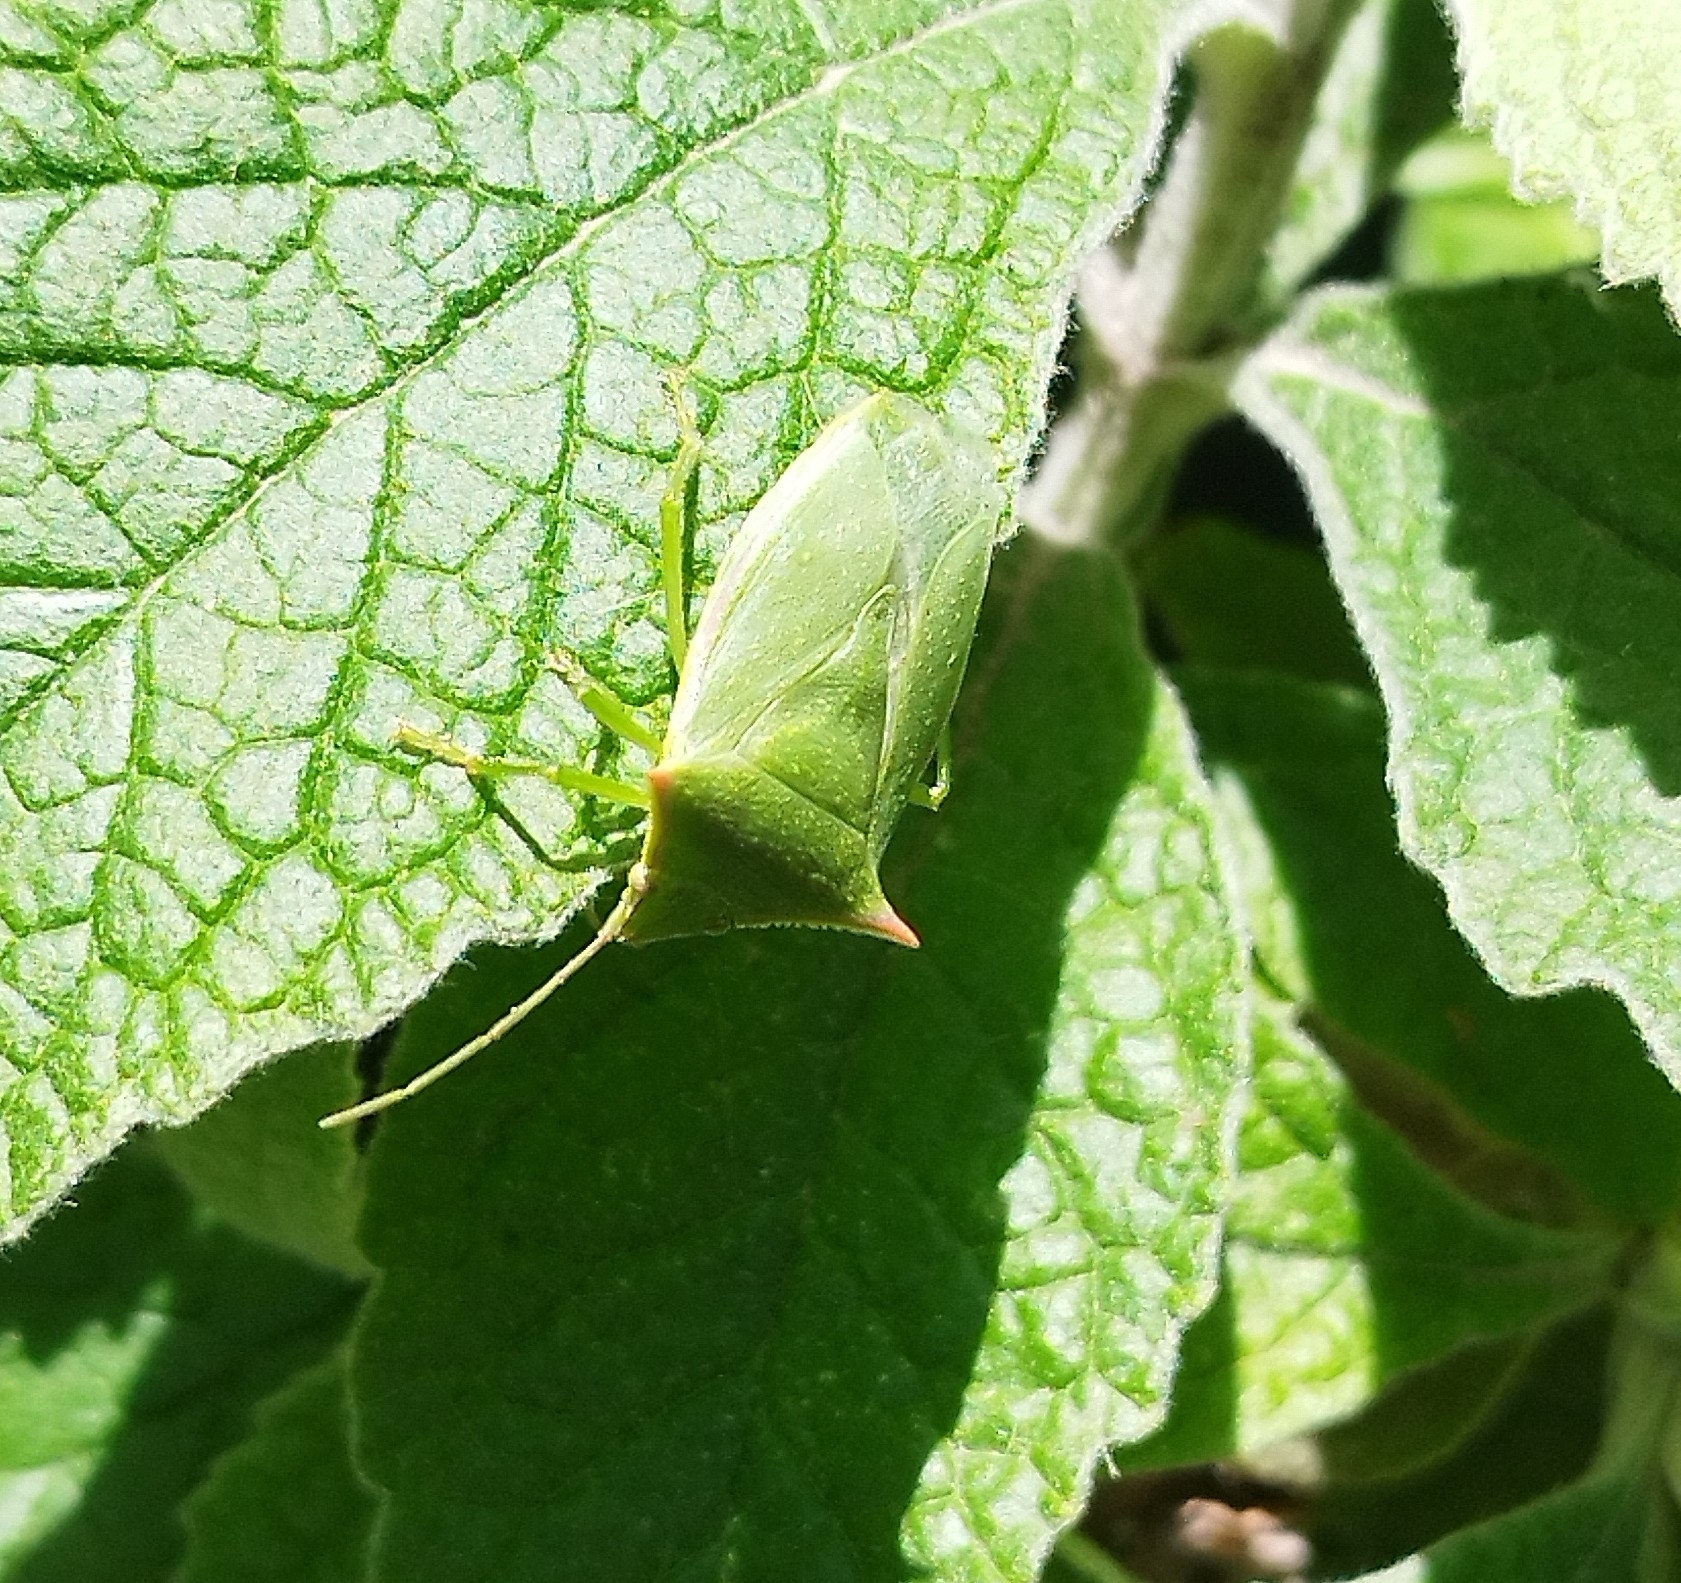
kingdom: Animalia
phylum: Arthropoda
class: Insecta
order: Hemiptera
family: Pentatomidae
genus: Loxa
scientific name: Loxa deducta
